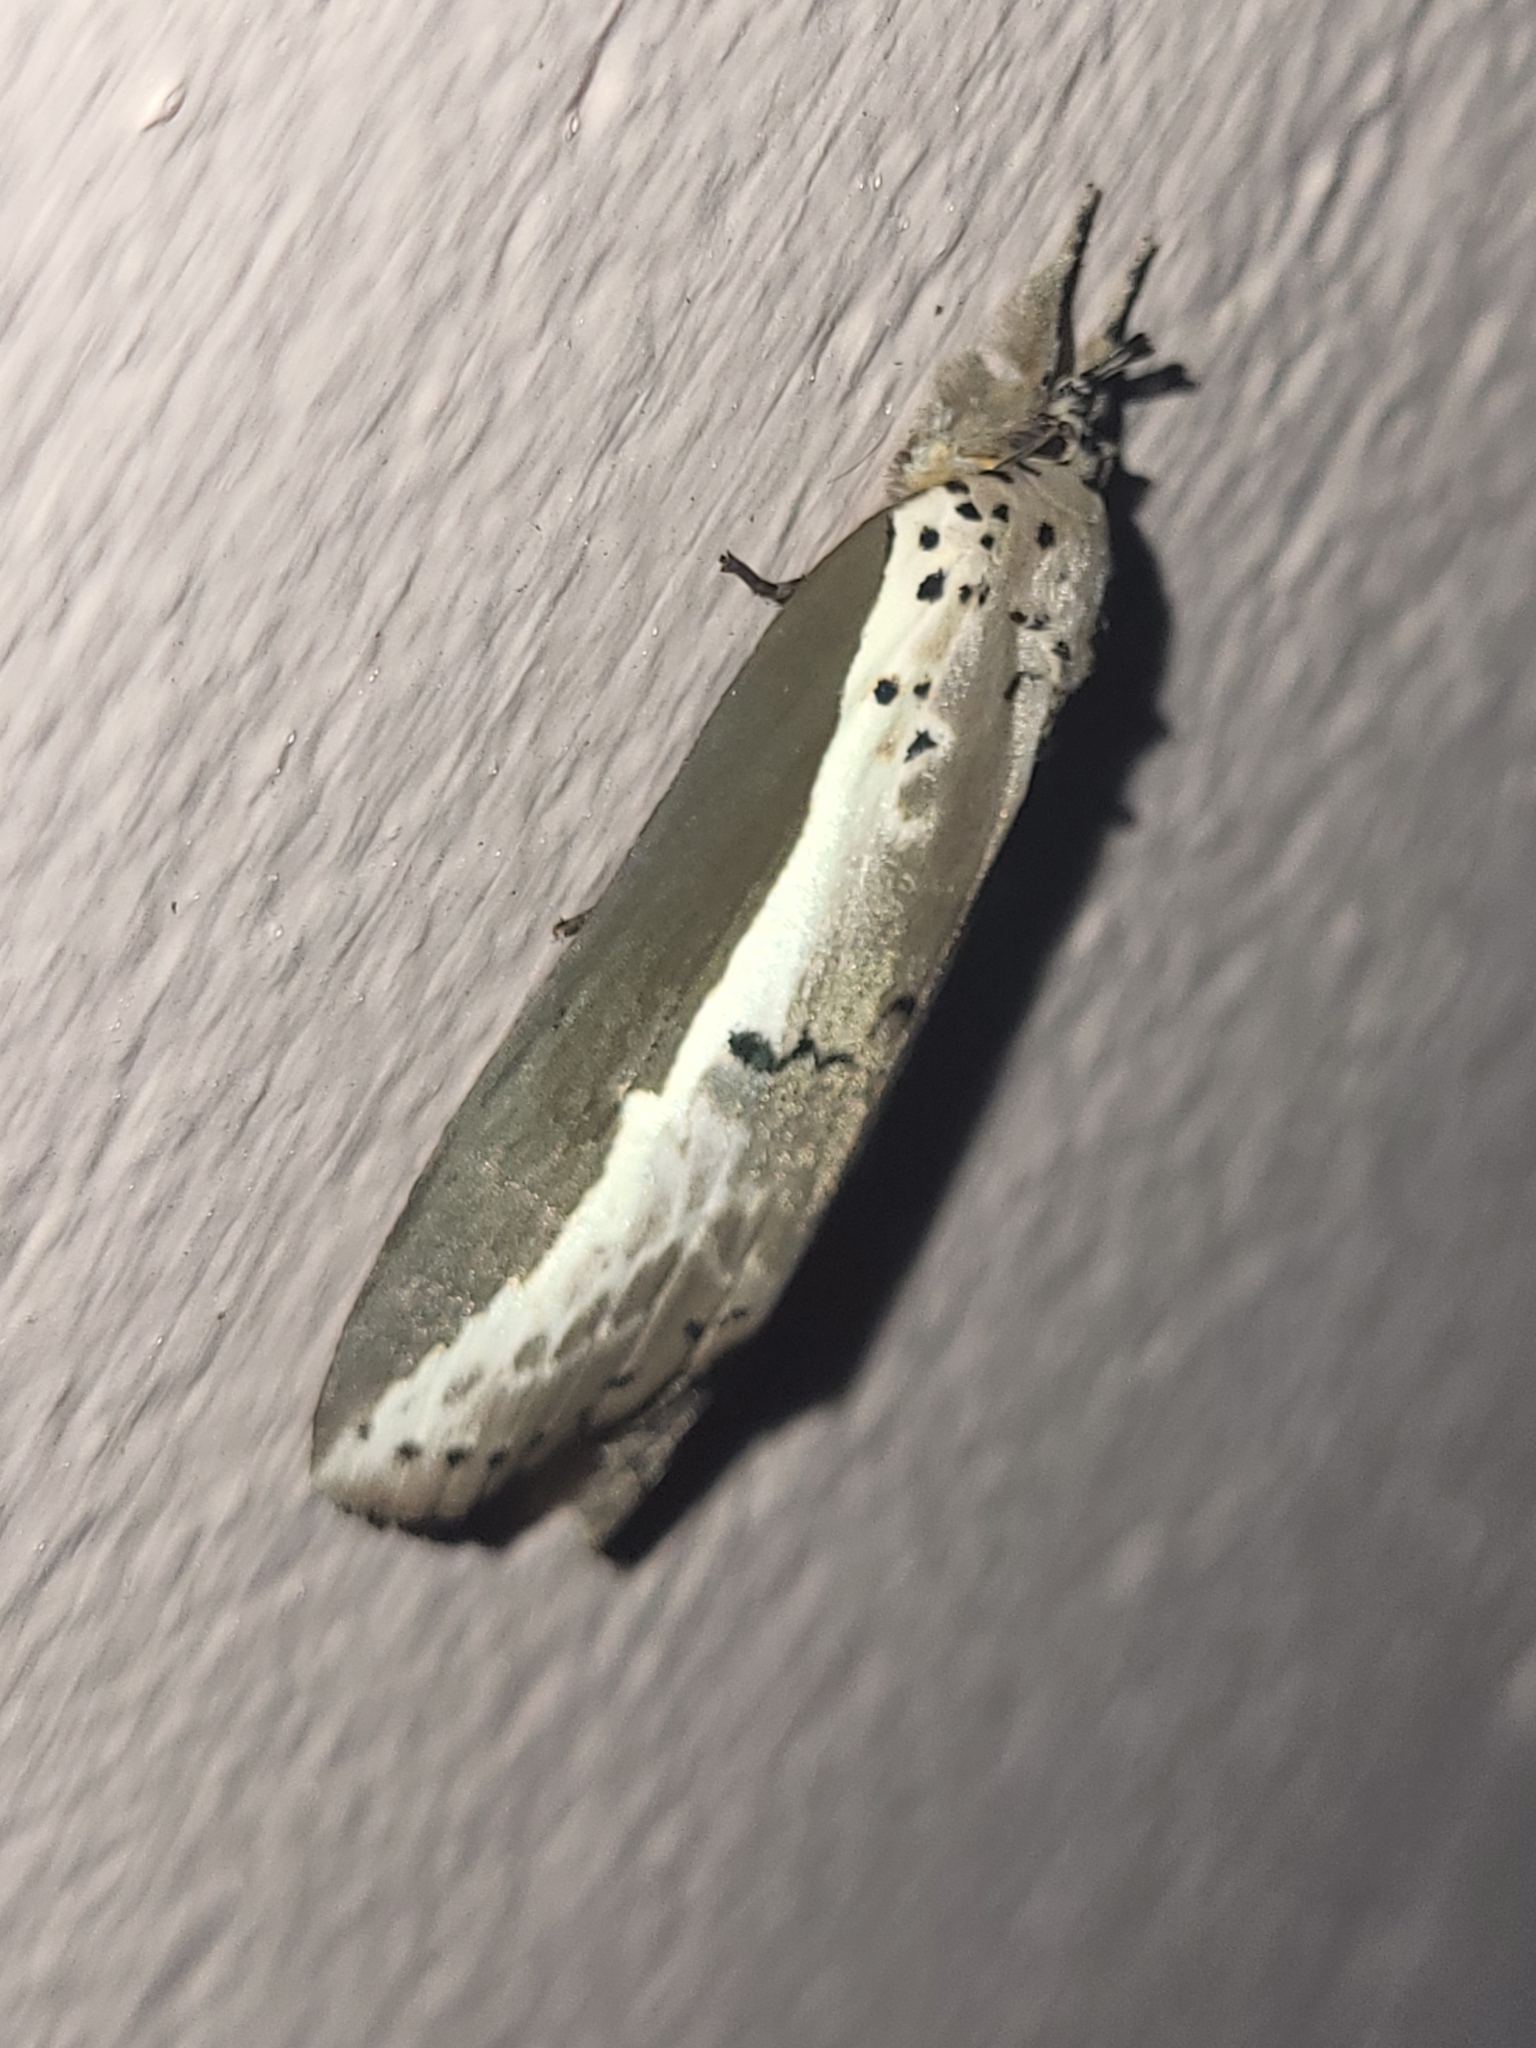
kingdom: Animalia
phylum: Arthropoda
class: Insecta
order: Lepidoptera
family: Nolidae
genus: Eligma
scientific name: Eligma narcissus
